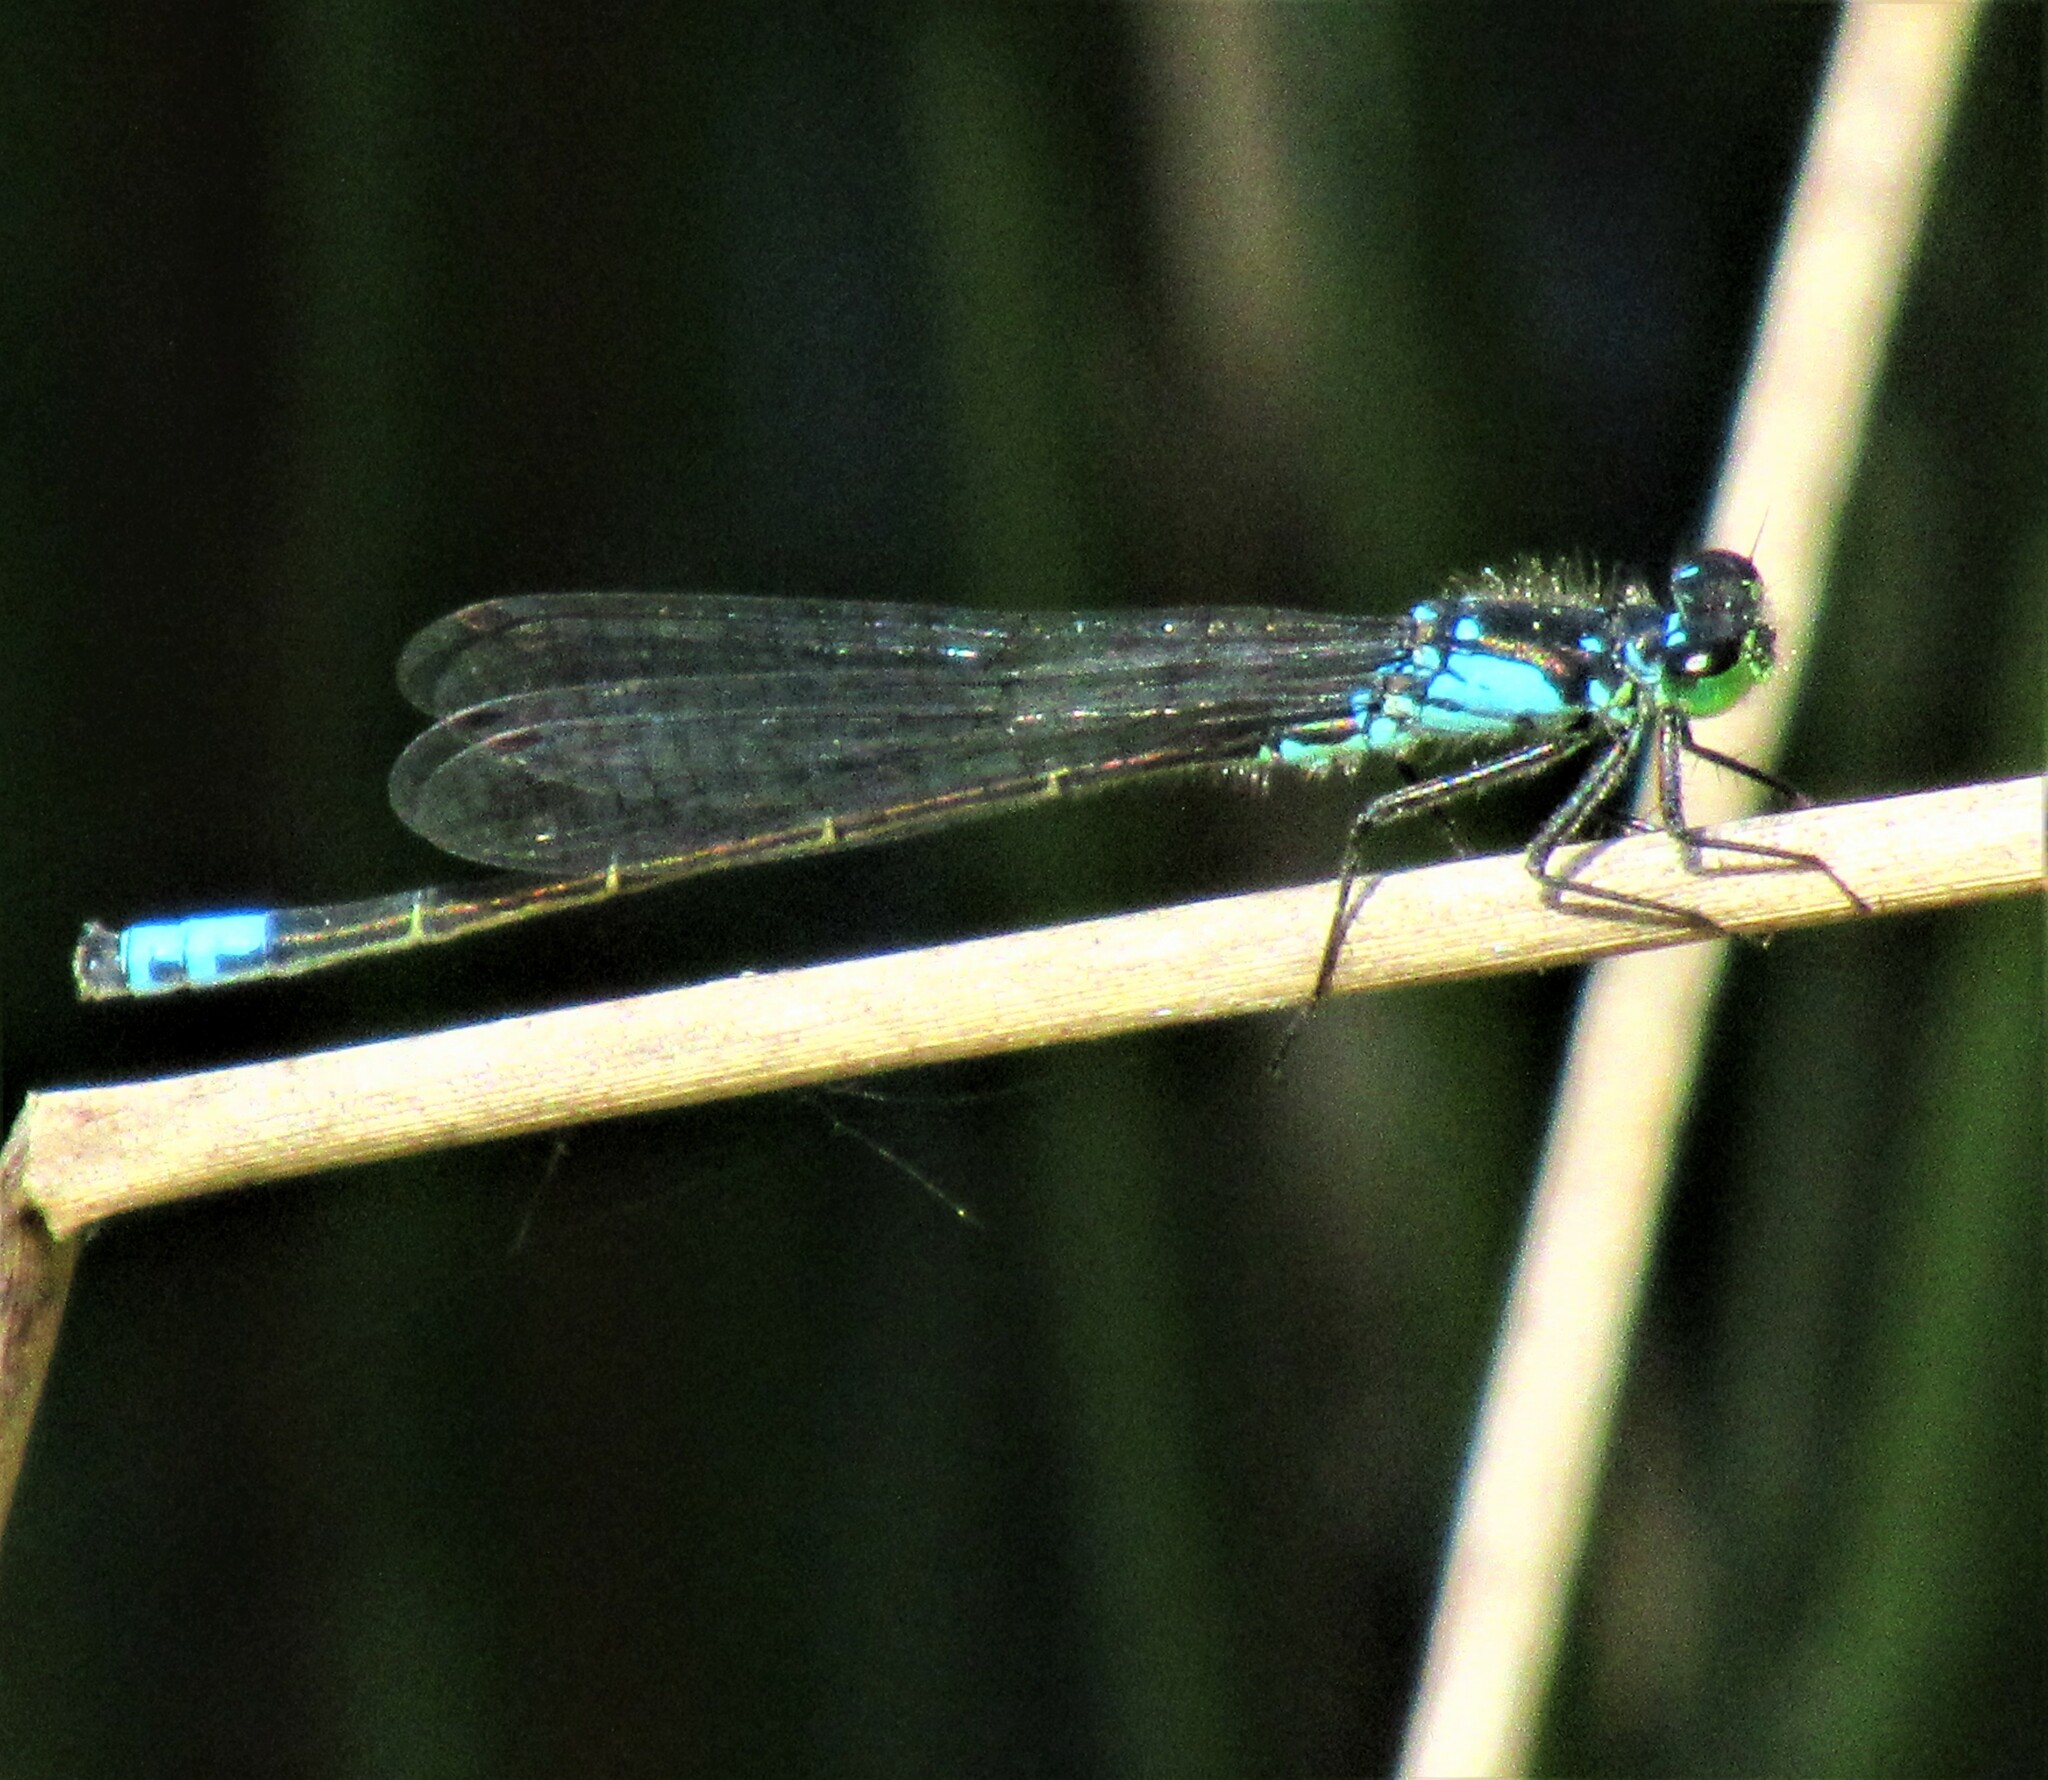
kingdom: Animalia
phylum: Arthropoda
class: Insecta
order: Odonata
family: Coenagrionidae
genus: Ischnura
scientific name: Ischnura cervula
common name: Pacific forktail
